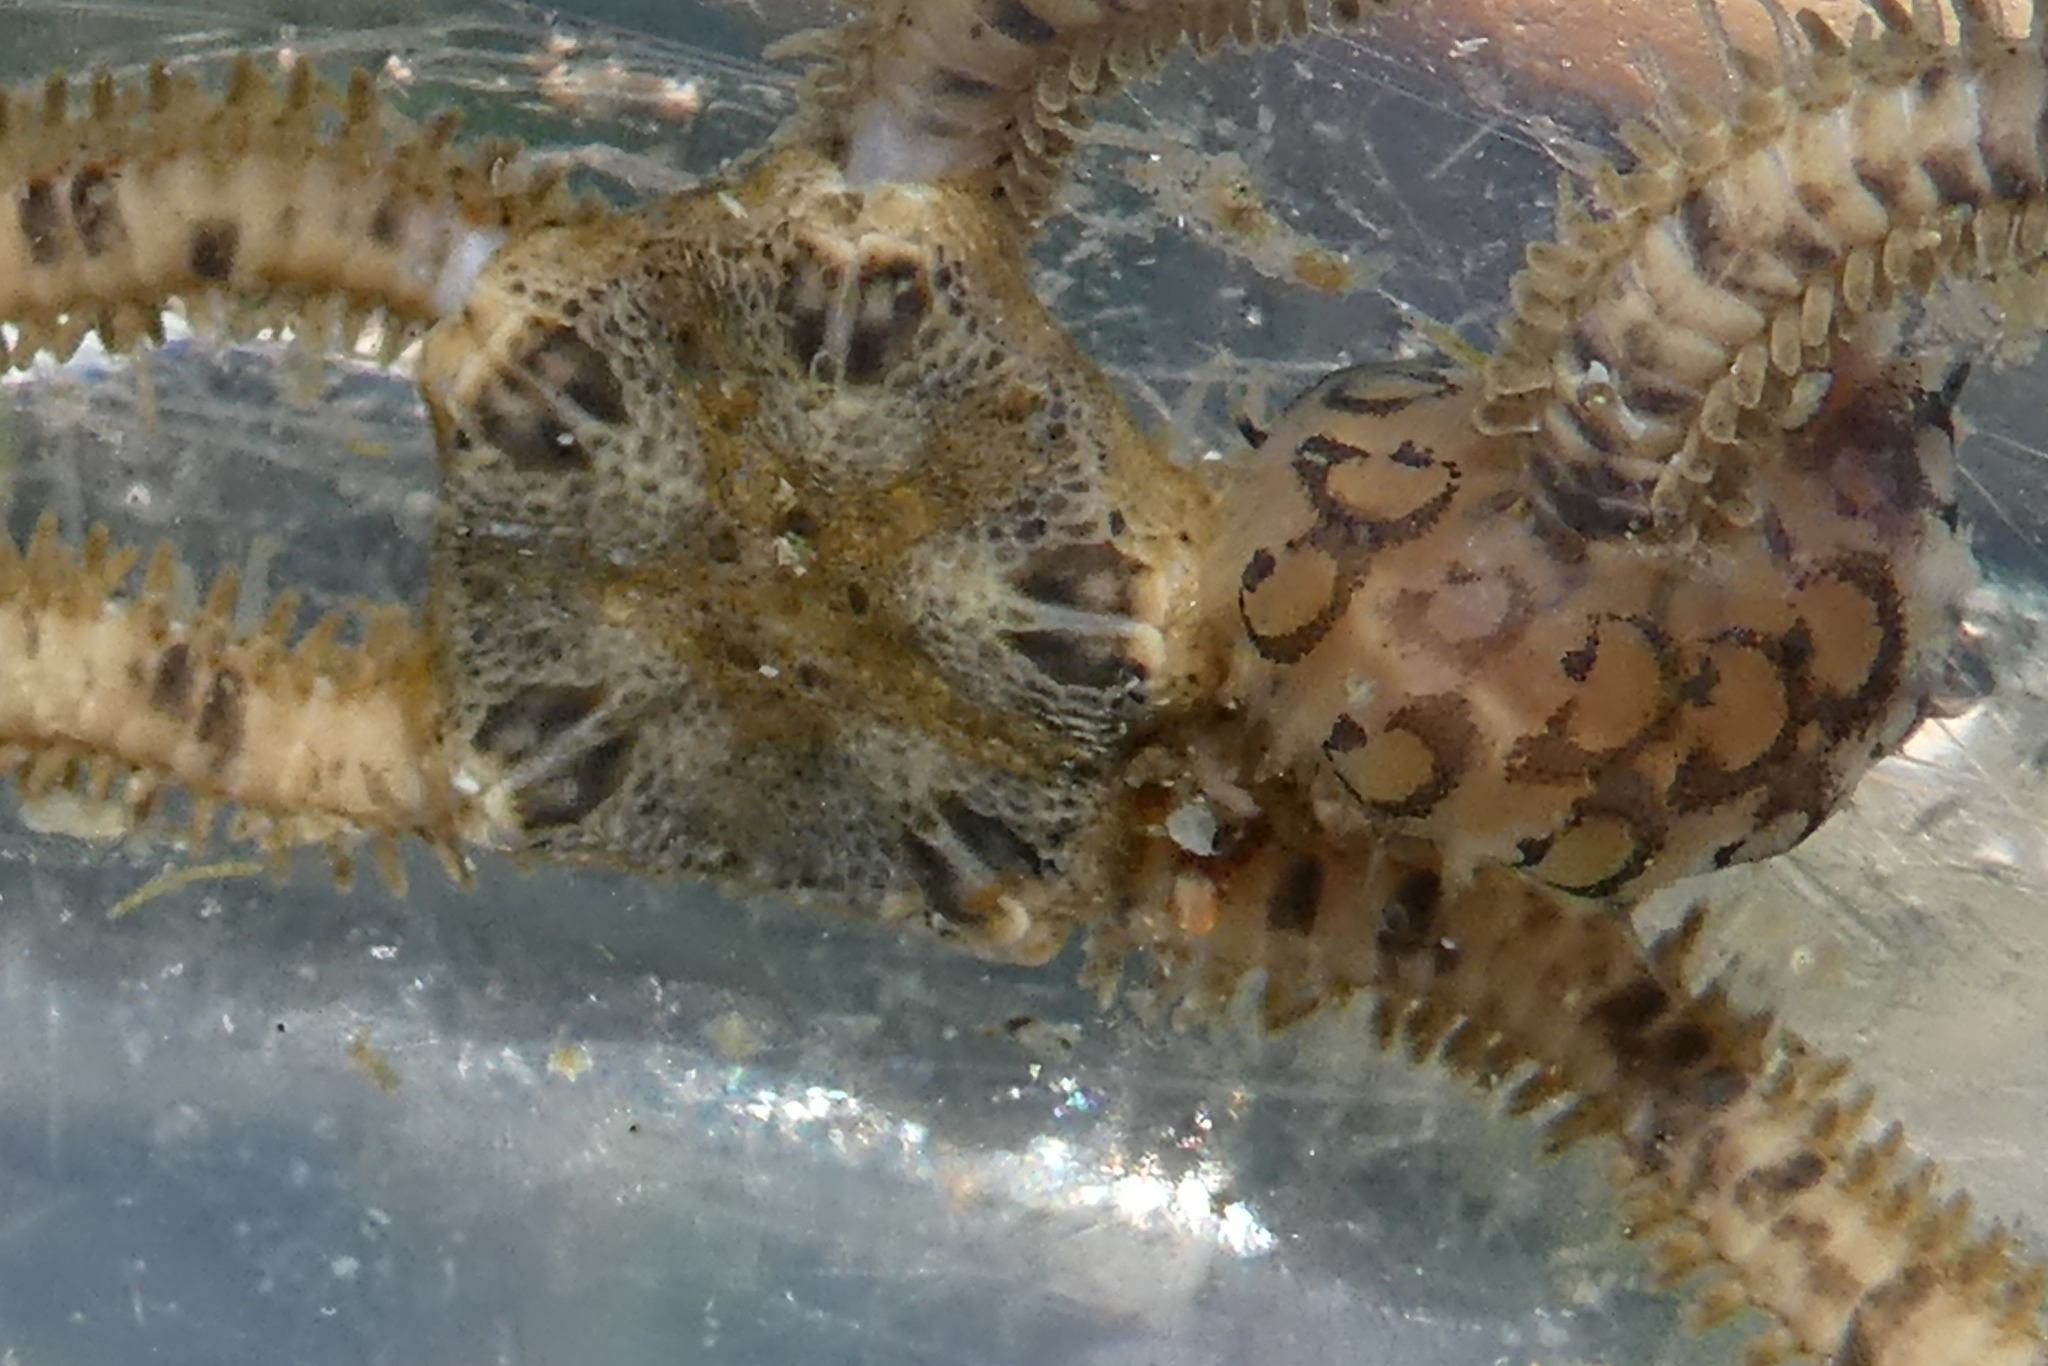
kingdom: Animalia
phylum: Annelida
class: Polychaeta
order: Phyllodocida
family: Polynoidae
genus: Malmgreniella
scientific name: Malmgreniella nigralba
